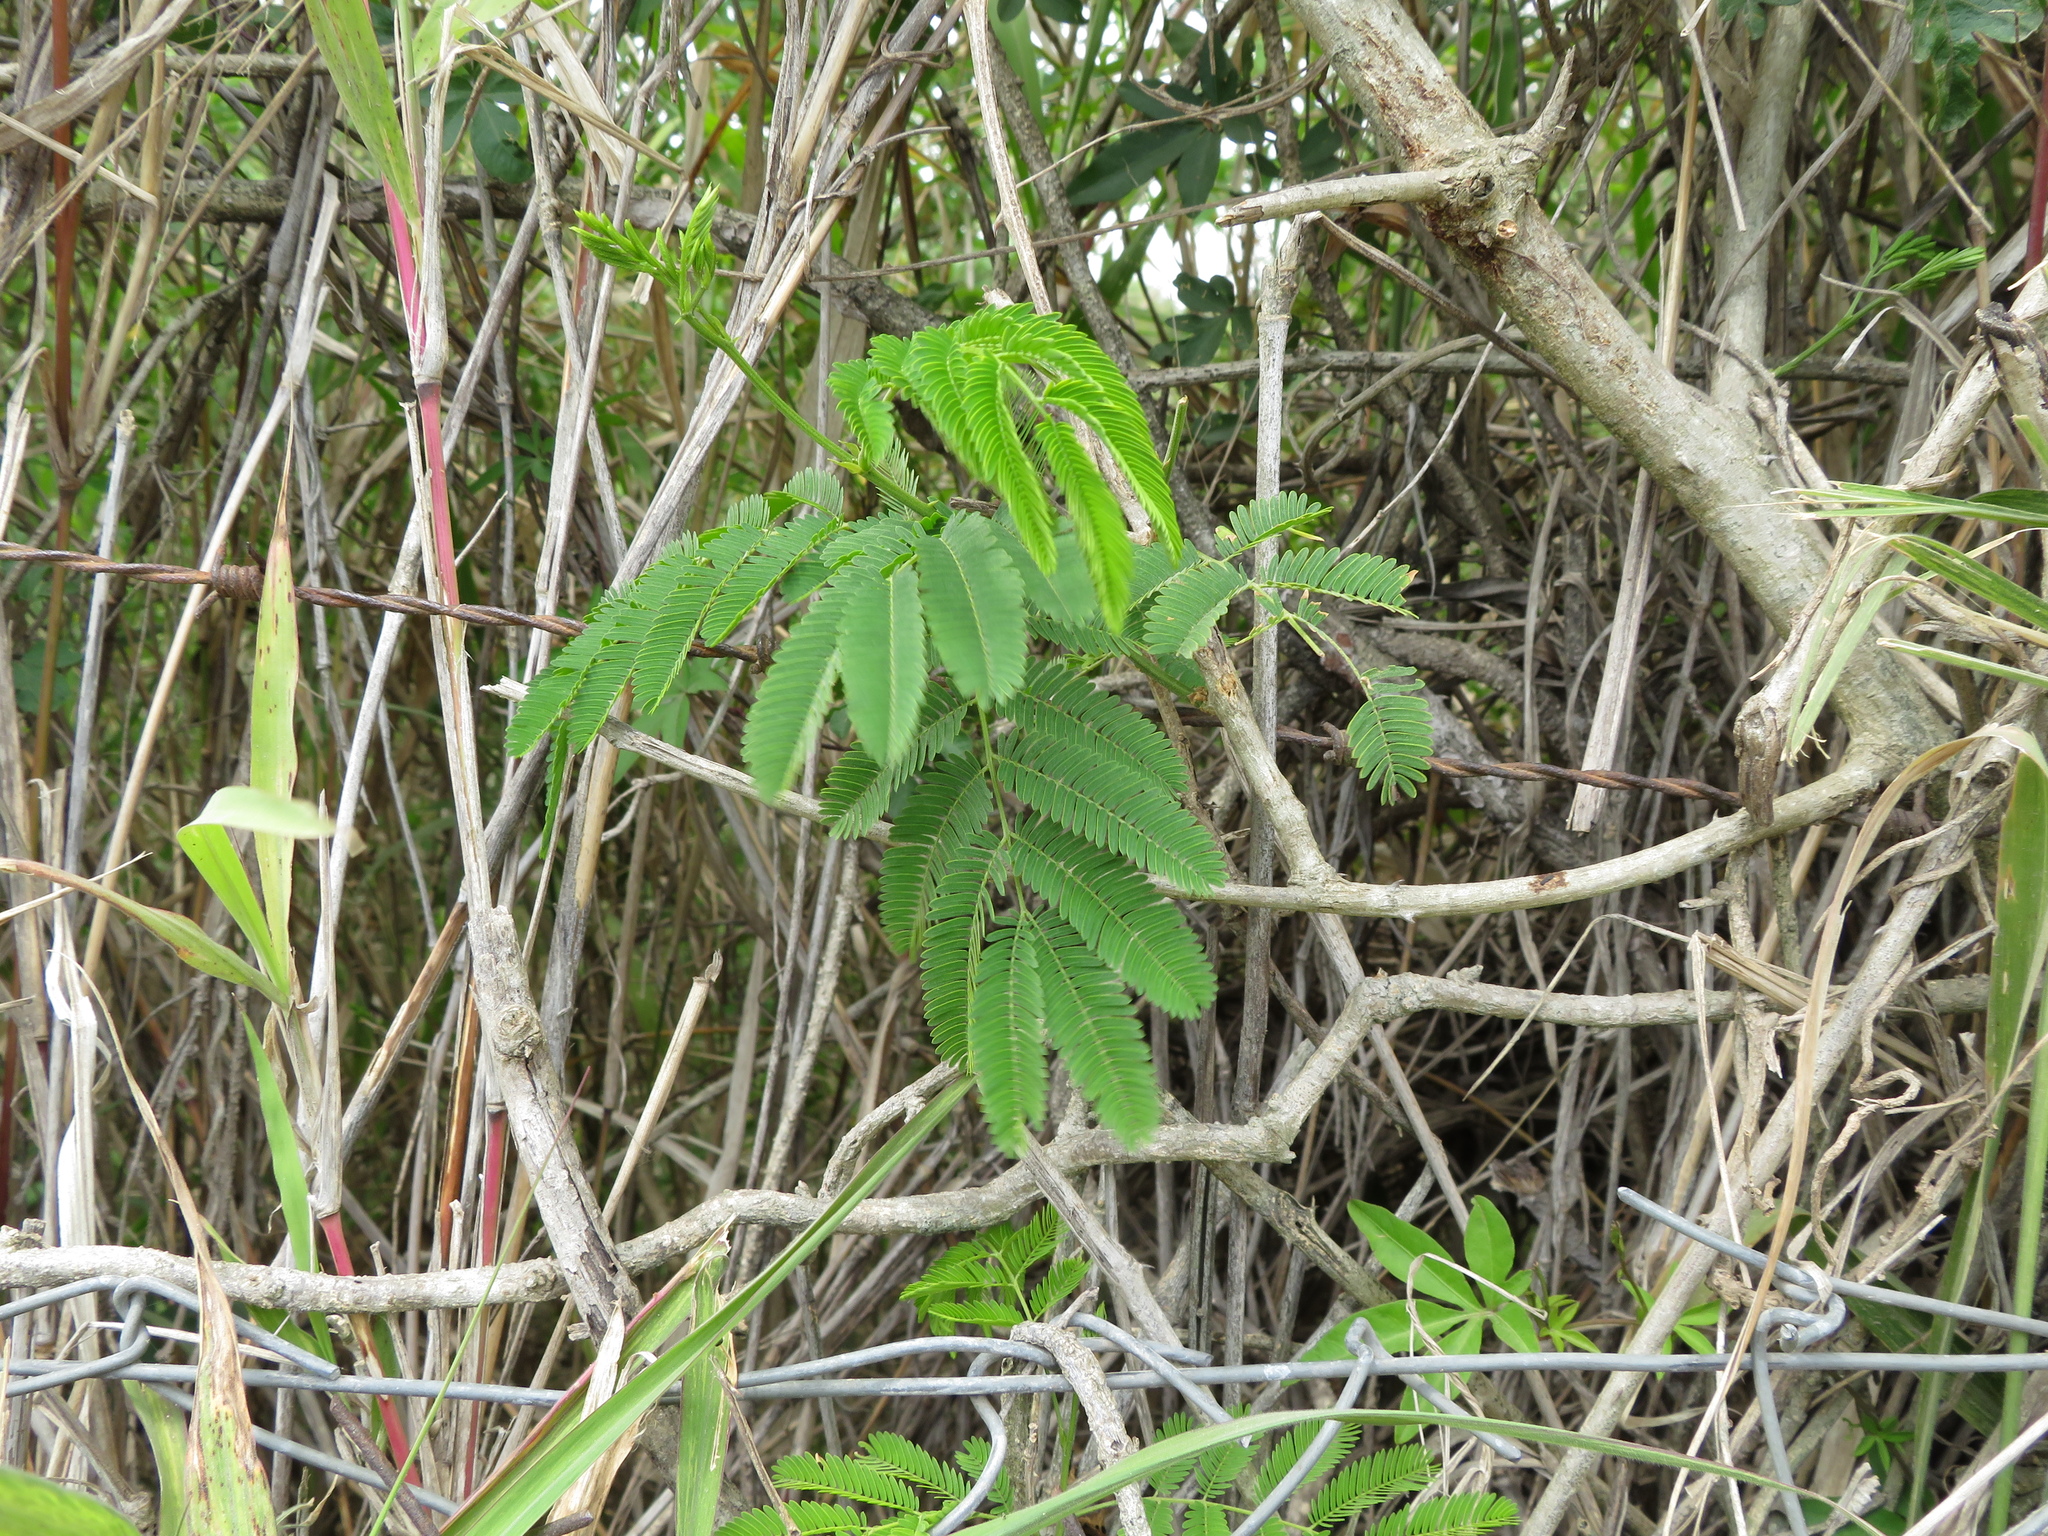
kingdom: Plantae
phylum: Tracheophyta
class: Magnoliopsida
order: Fabales
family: Fabaceae
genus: Senegalia
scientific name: Senegalia bonariensis
